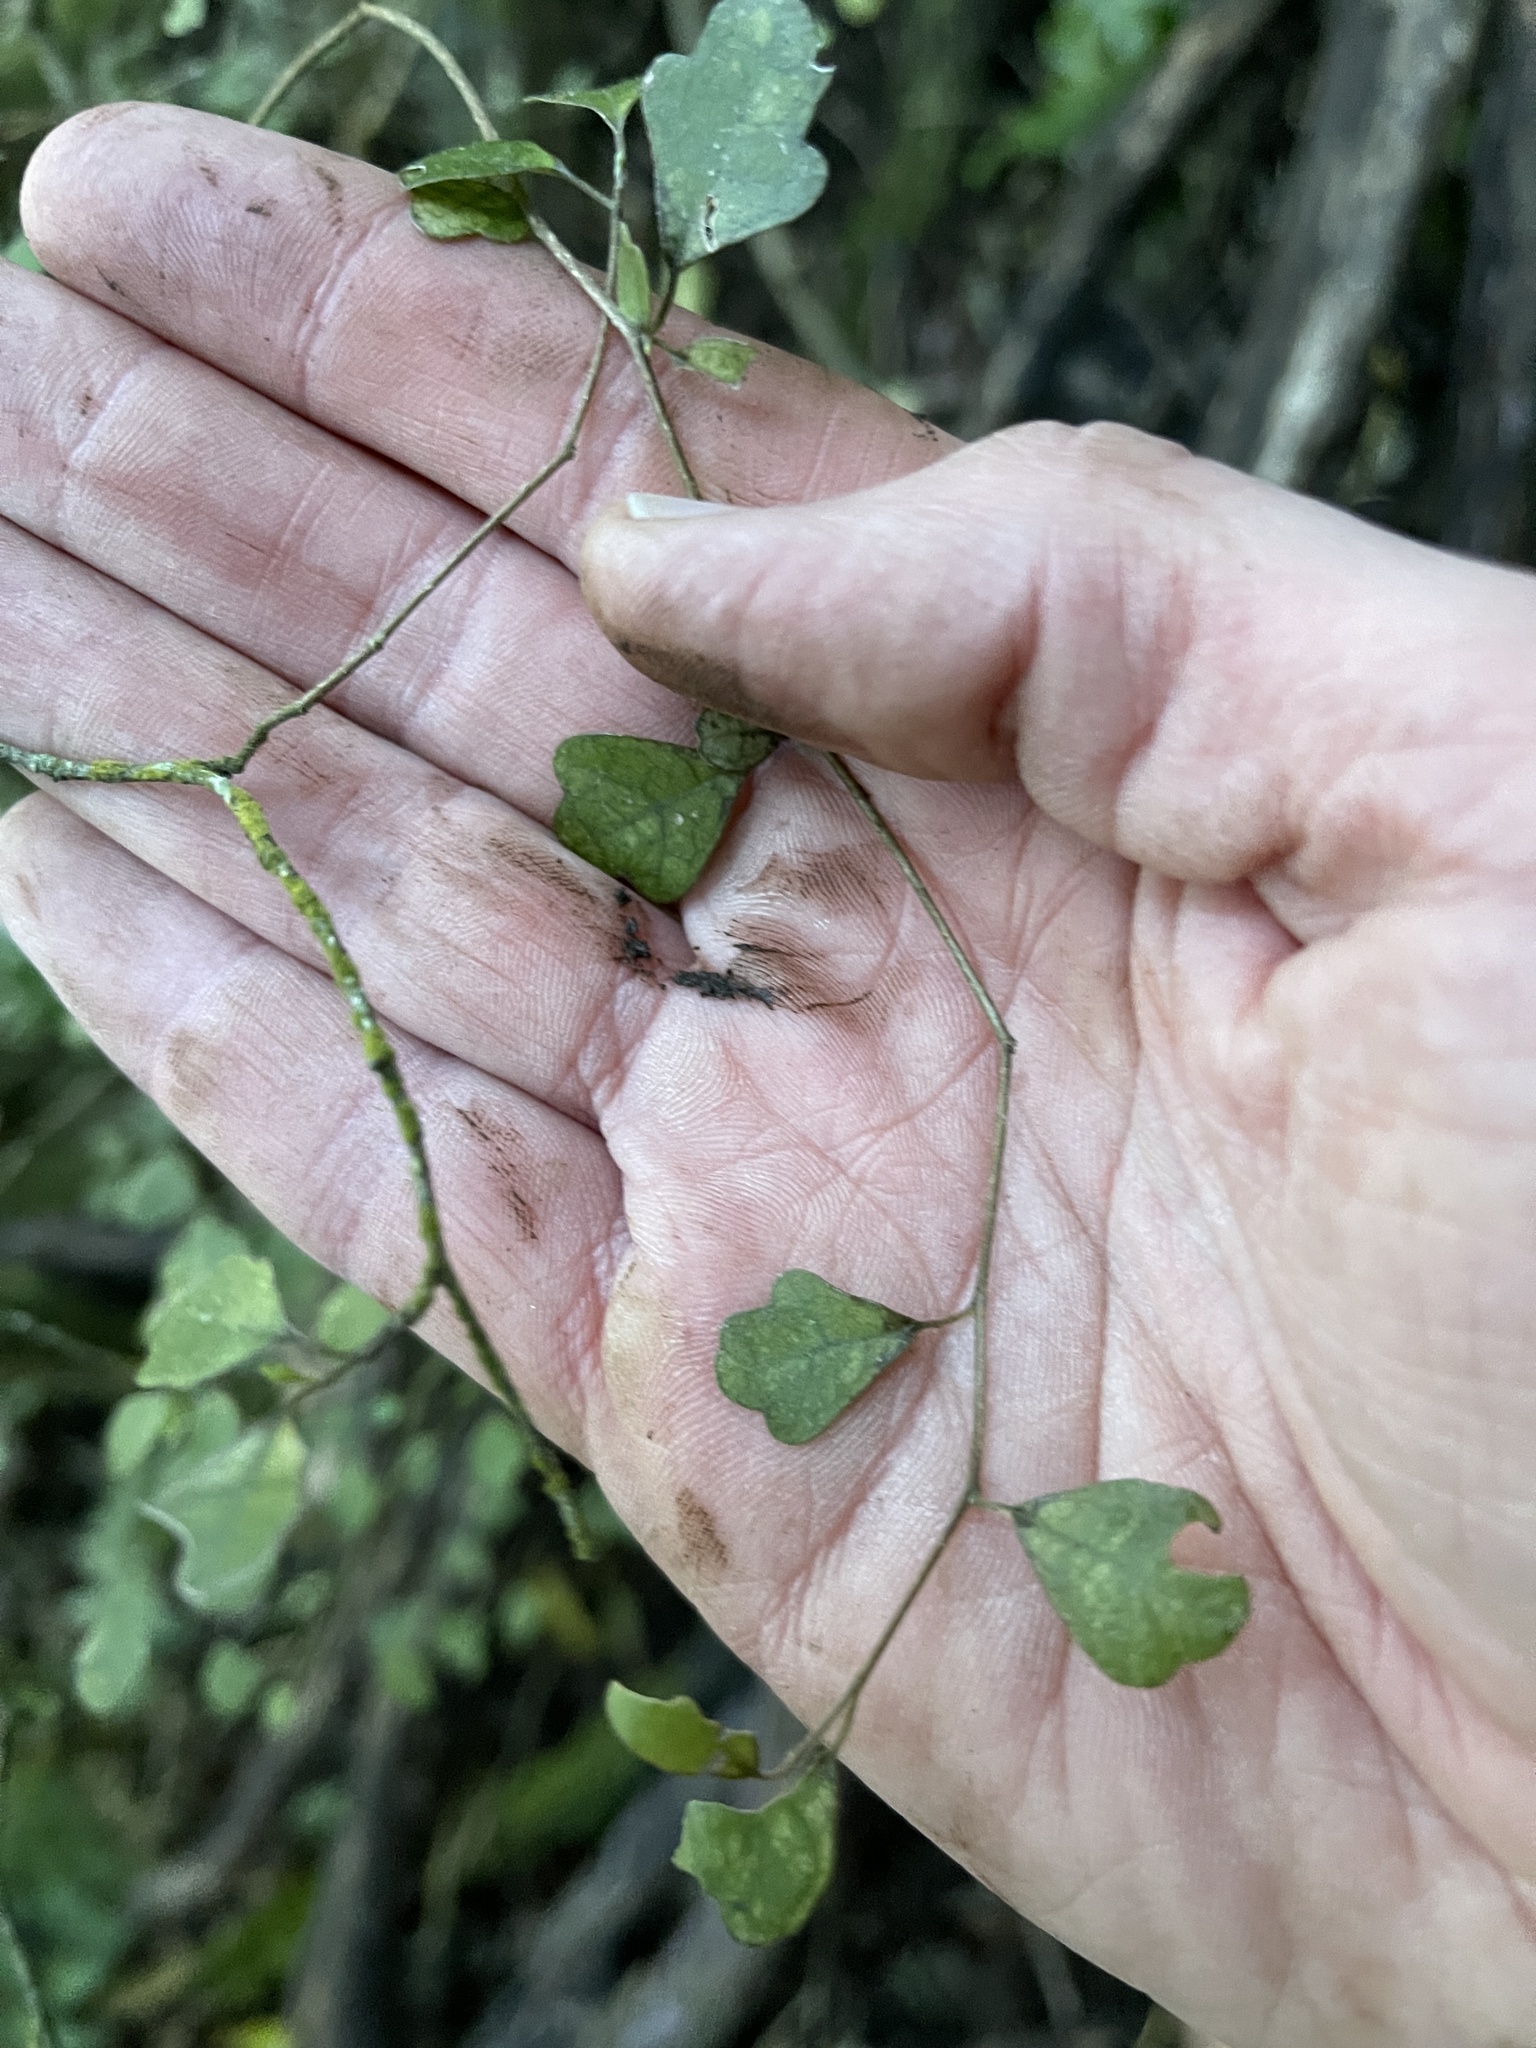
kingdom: Plantae
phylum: Tracheophyta
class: Magnoliopsida
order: Apiales
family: Pennantiaceae
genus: Pennantia
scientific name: Pennantia corymbosa
